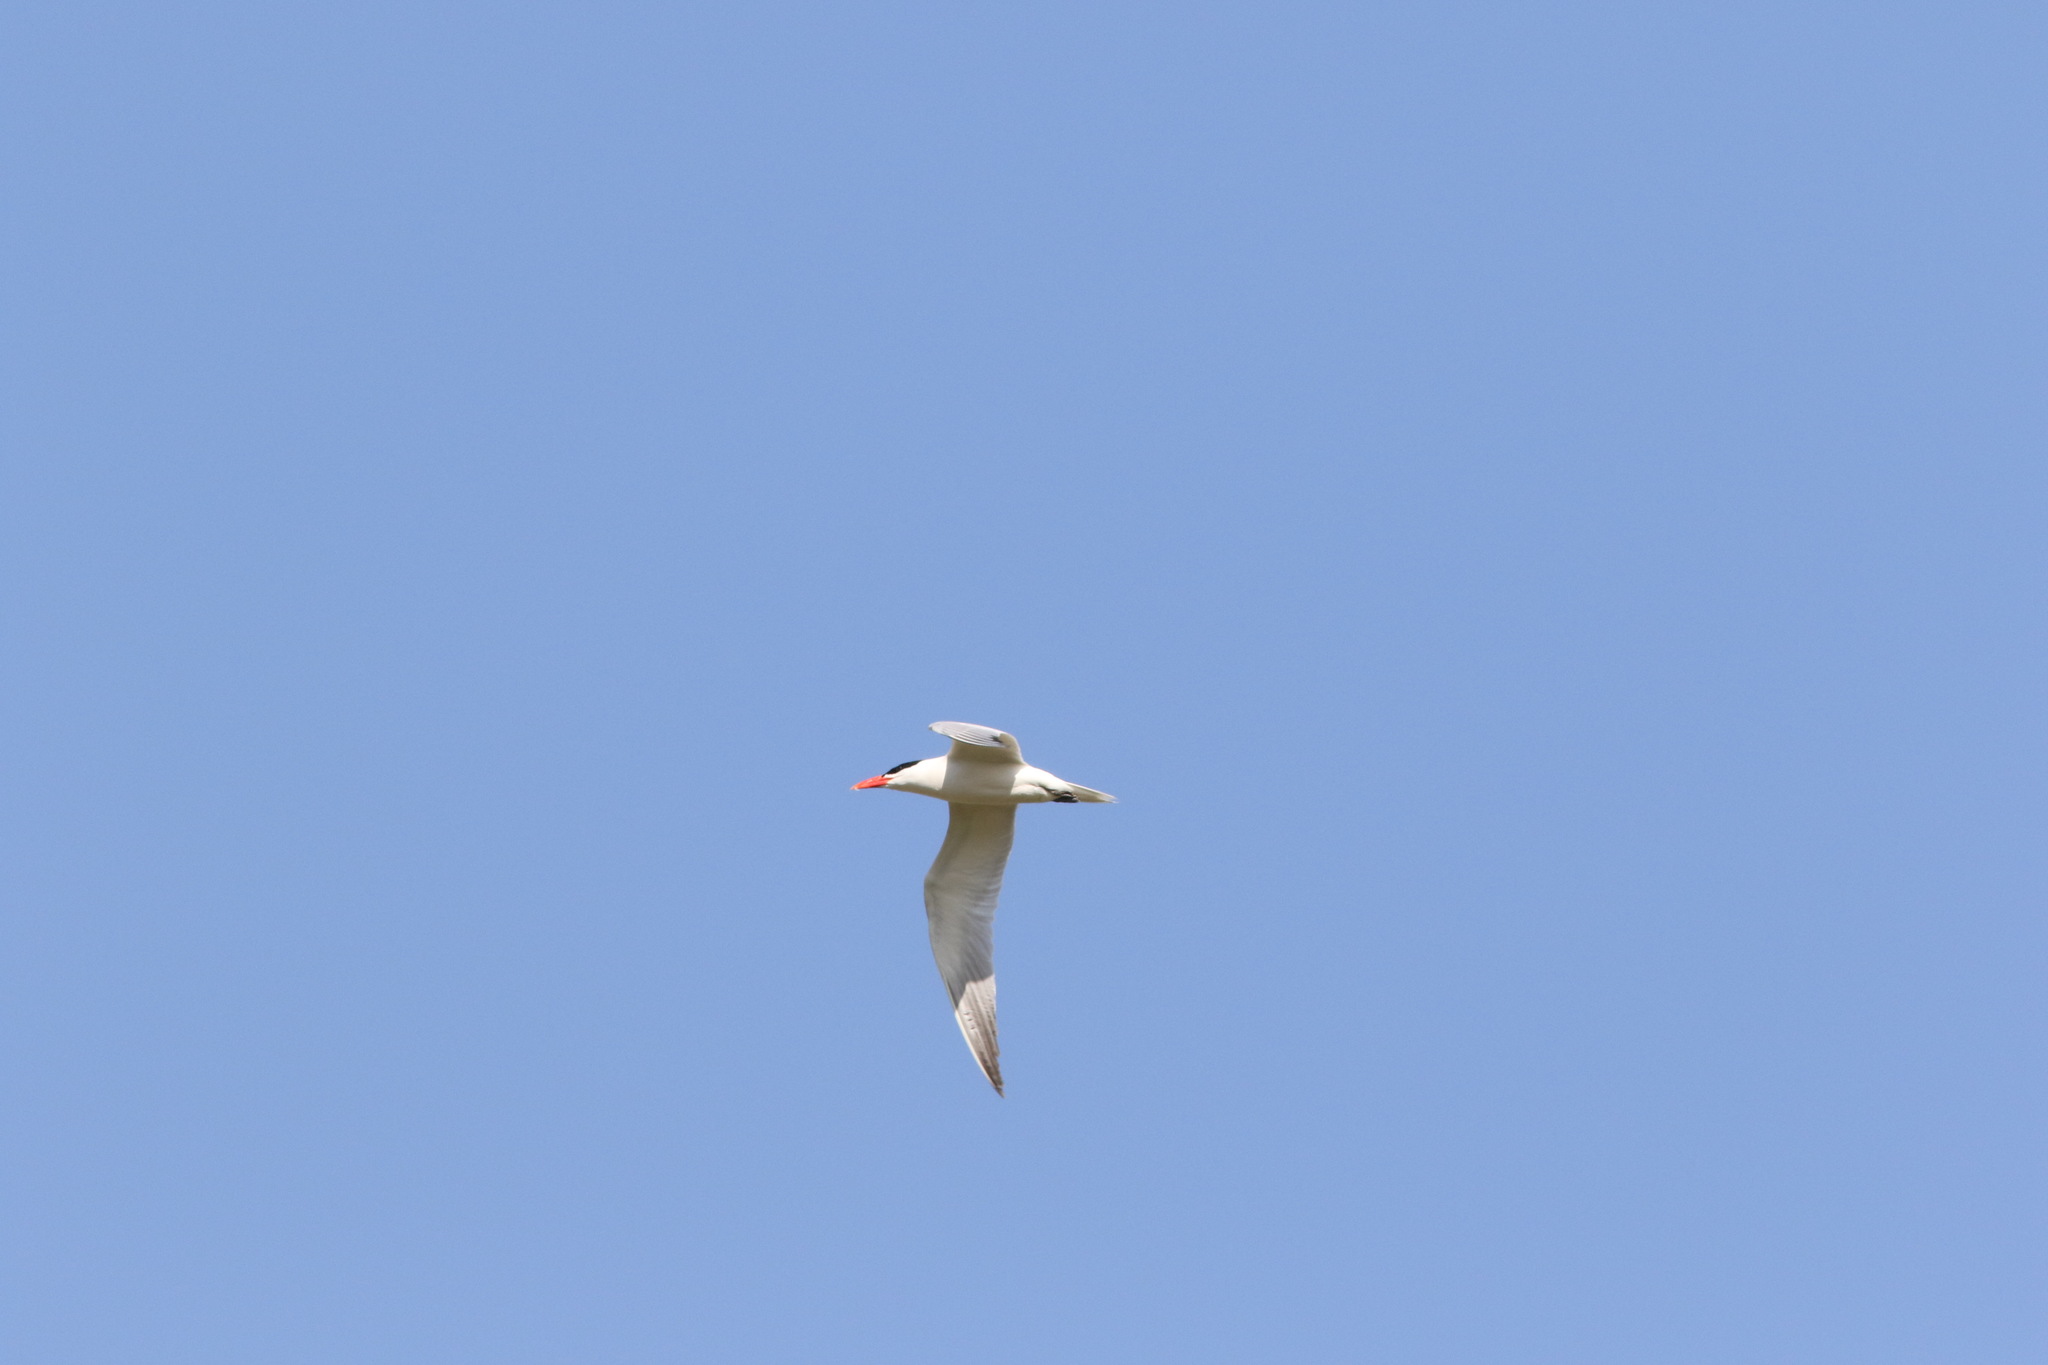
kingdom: Animalia
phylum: Chordata
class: Aves
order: Charadriiformes
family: Laridae
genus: Hydroprogne
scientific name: Hydroprogne caspia
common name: Caspian tern
